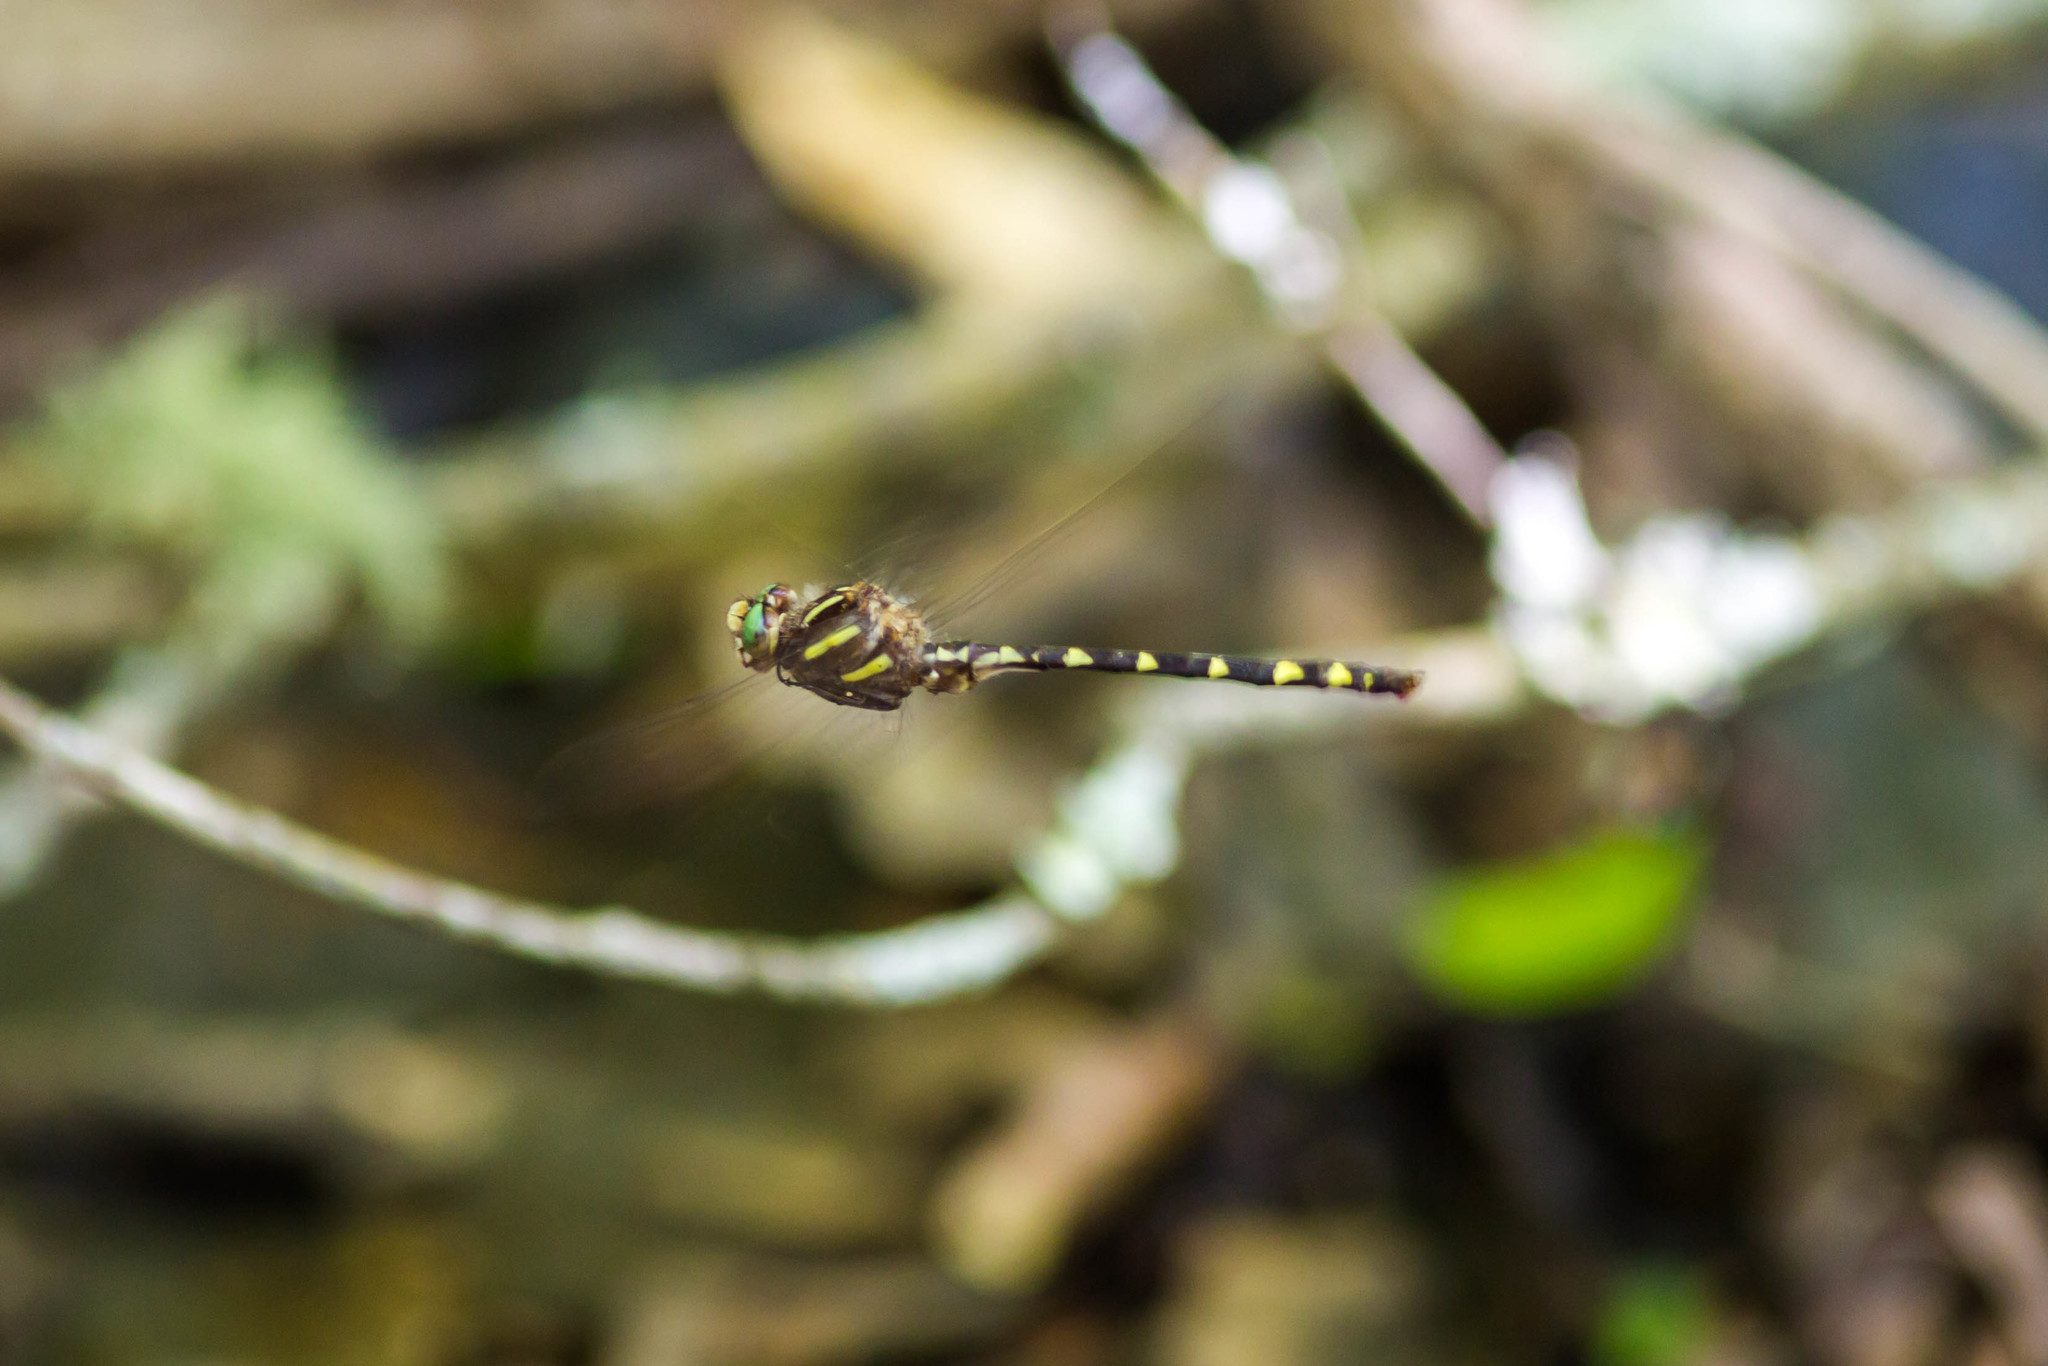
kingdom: Animalia
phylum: Arthropoda
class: Insecta
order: Odonata
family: Cordulegastridae
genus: Cordulegaster
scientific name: Cordulegaster bilineata
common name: Brown spiketail
